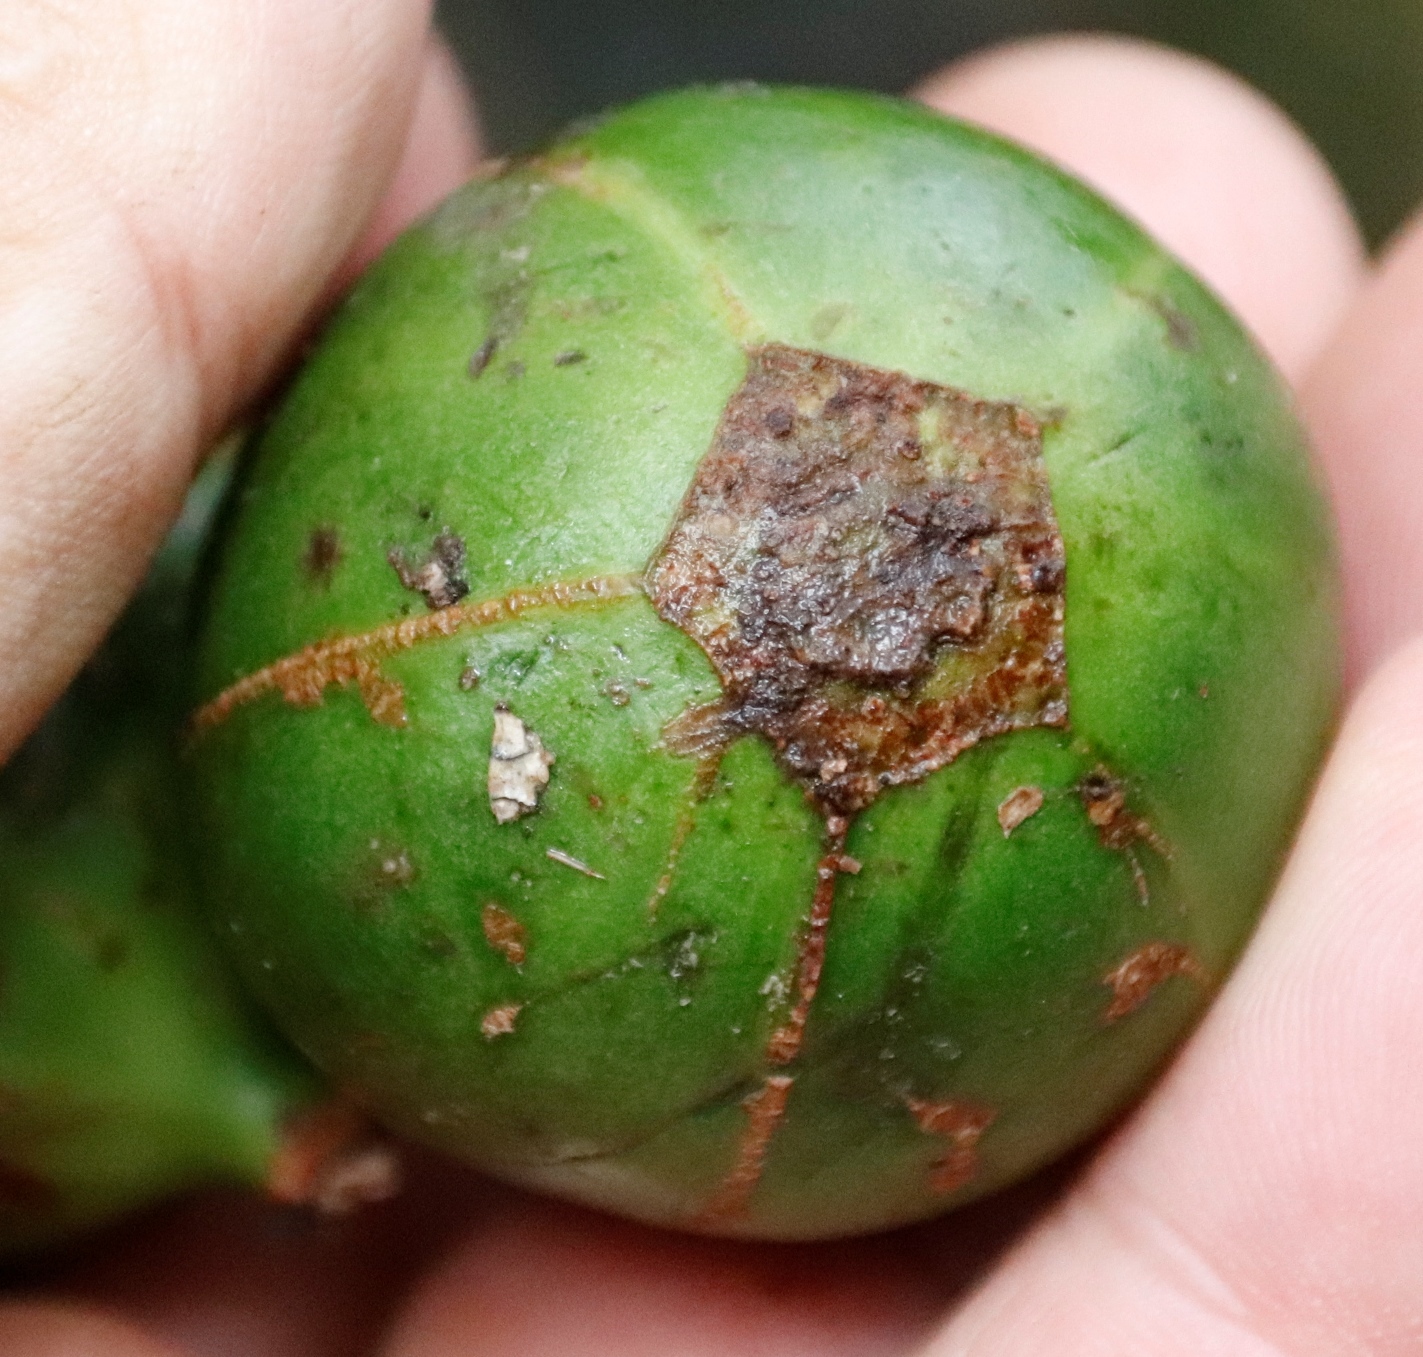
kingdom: Plantae
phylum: Tracheophyta
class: Magnoliopsida
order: Gentianales
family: Rubiaceae
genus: Rothmannia
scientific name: Rothmannia capensis
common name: Cape gardenia
